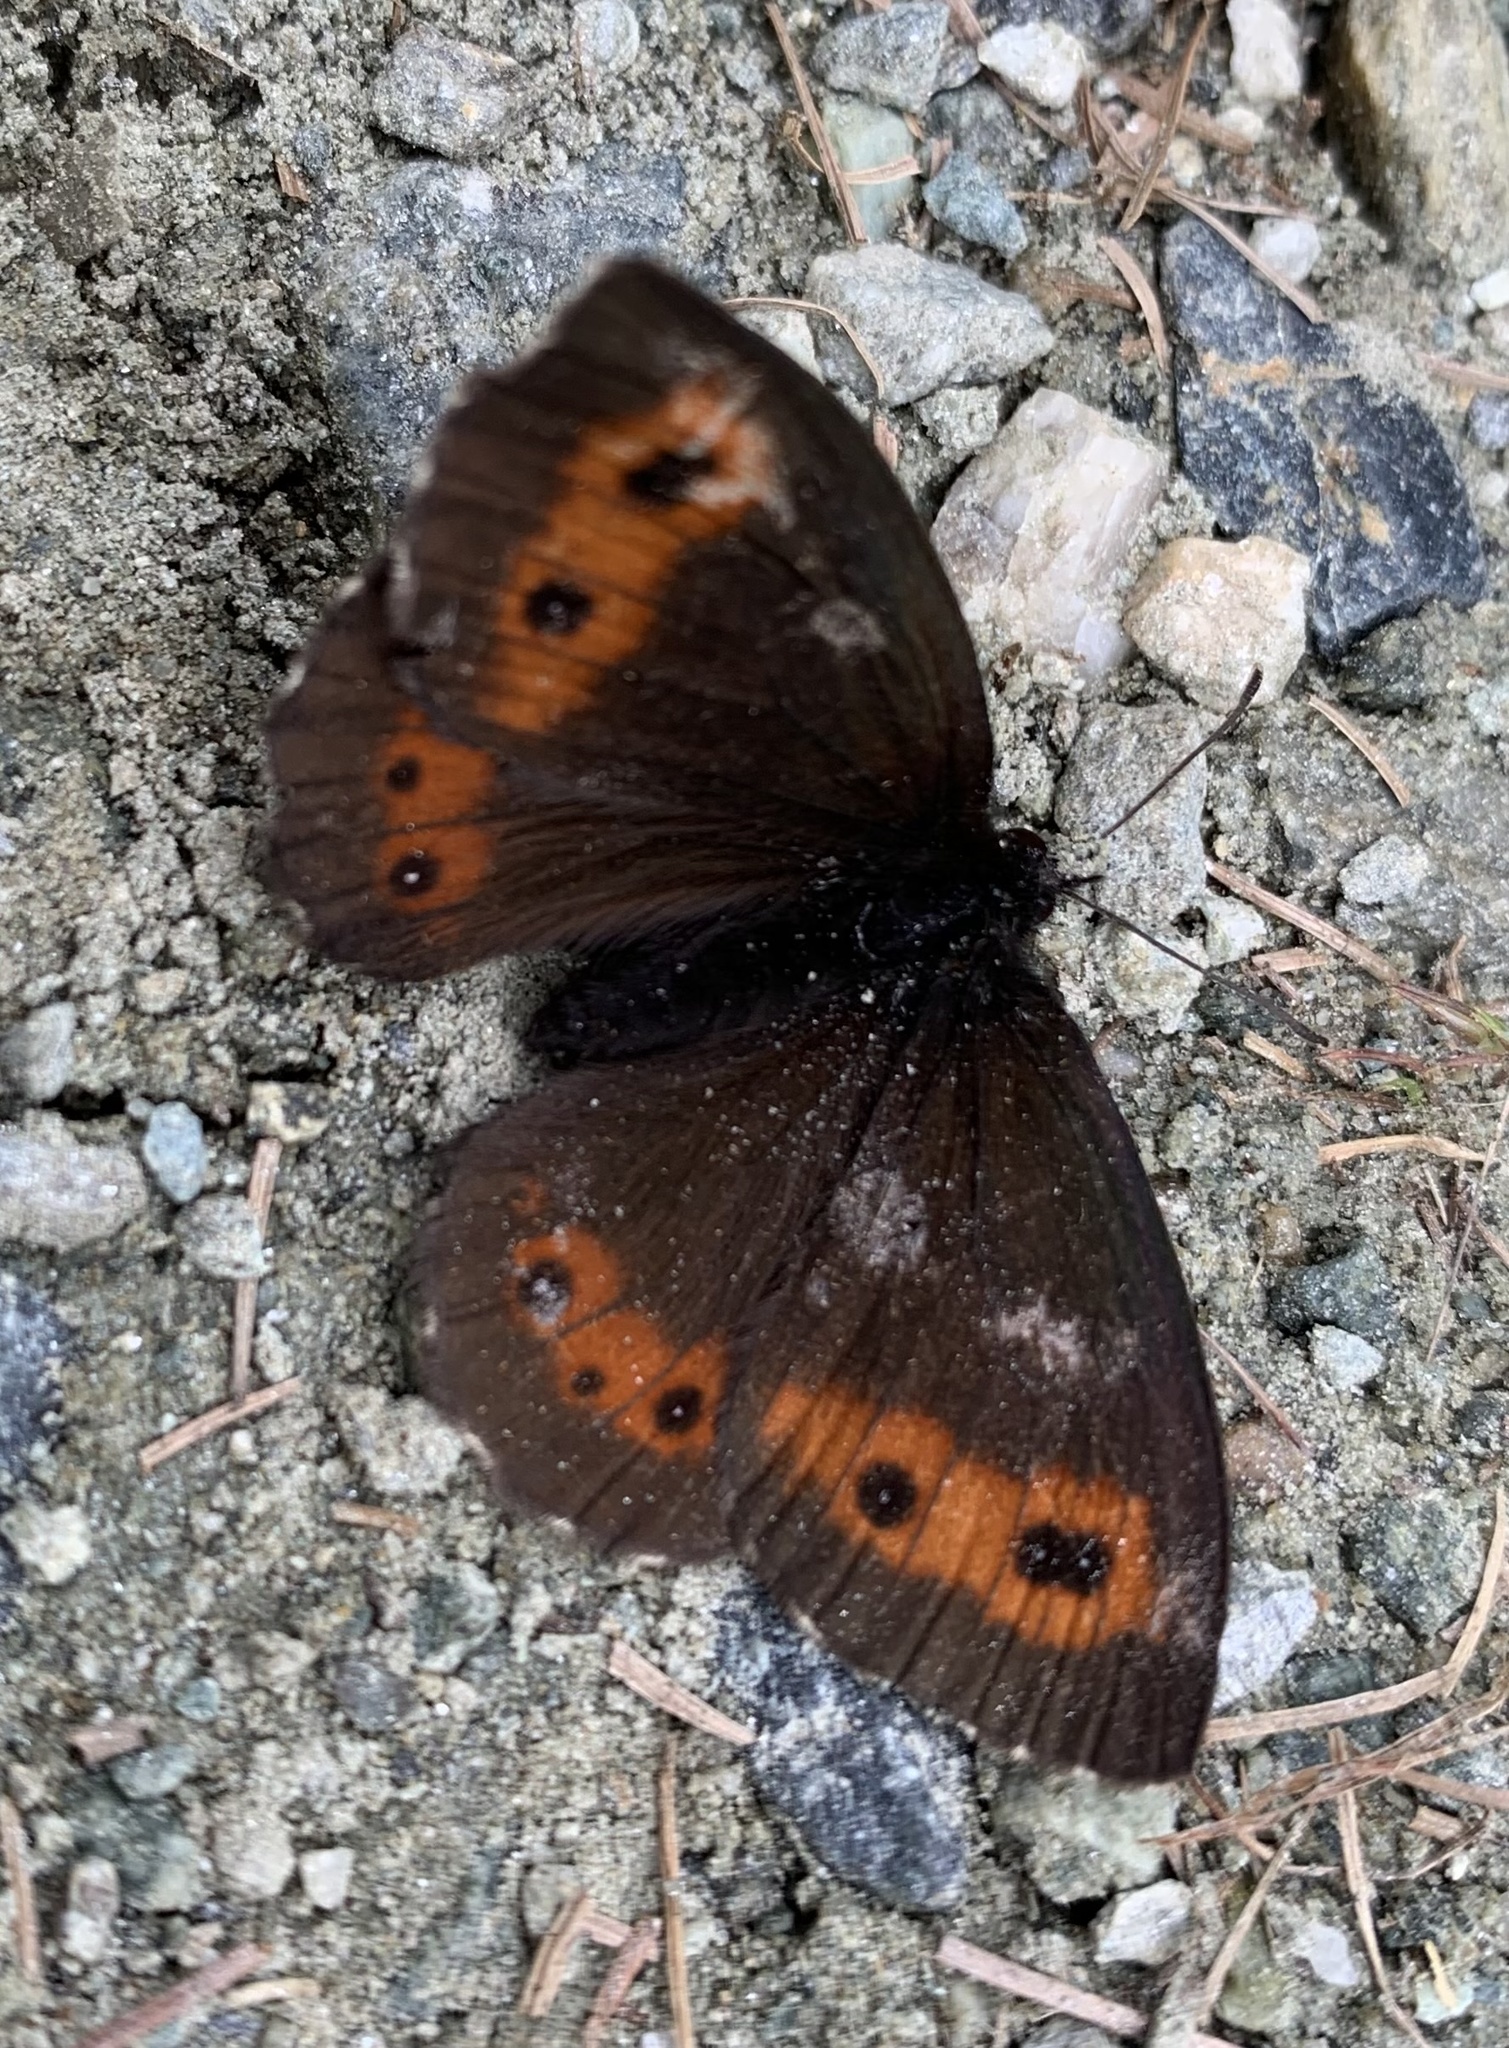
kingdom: Animalia
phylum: Arthropoda
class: Insecta
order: Lepidoptera
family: Nymphalidae
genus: Erebia
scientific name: Erebia euryale
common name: Large ringlet
